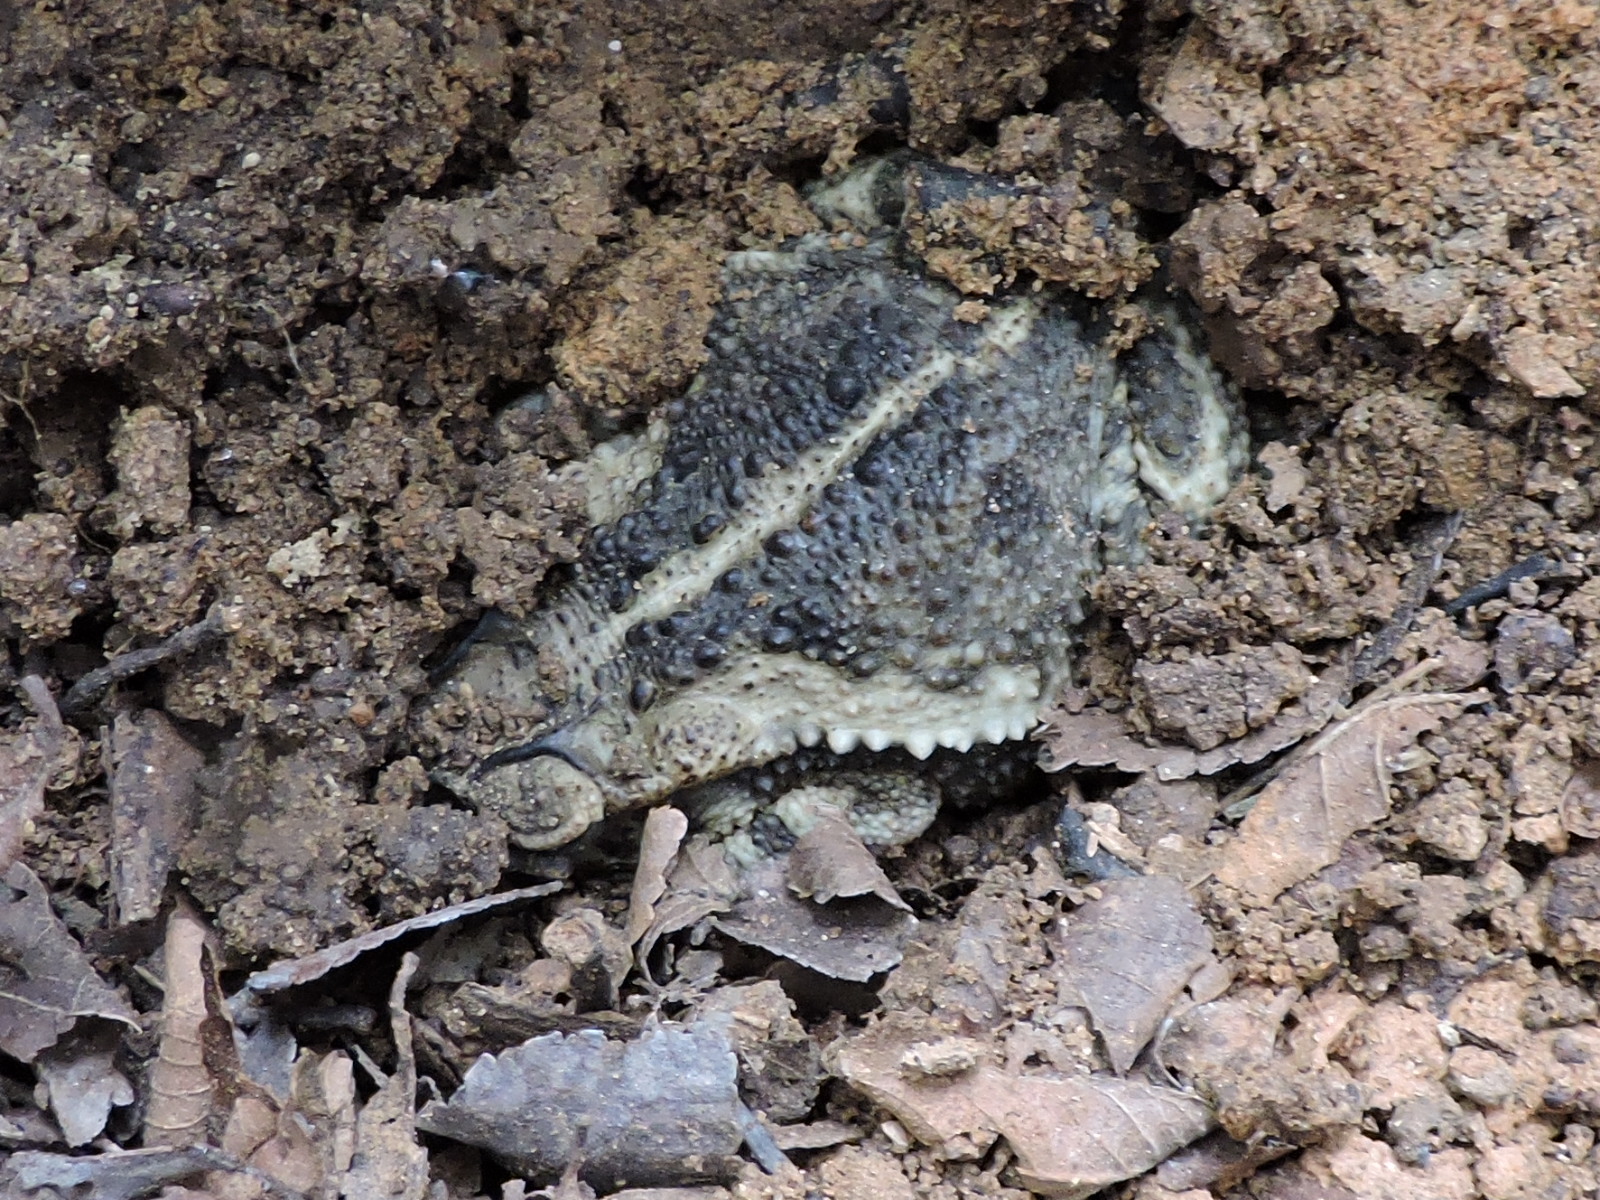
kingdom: Animalia
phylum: Chordata
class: Amphibia
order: Anura
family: Bufonidae
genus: Incilius
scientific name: Incilius nebulifer
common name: Gulf coast toad
